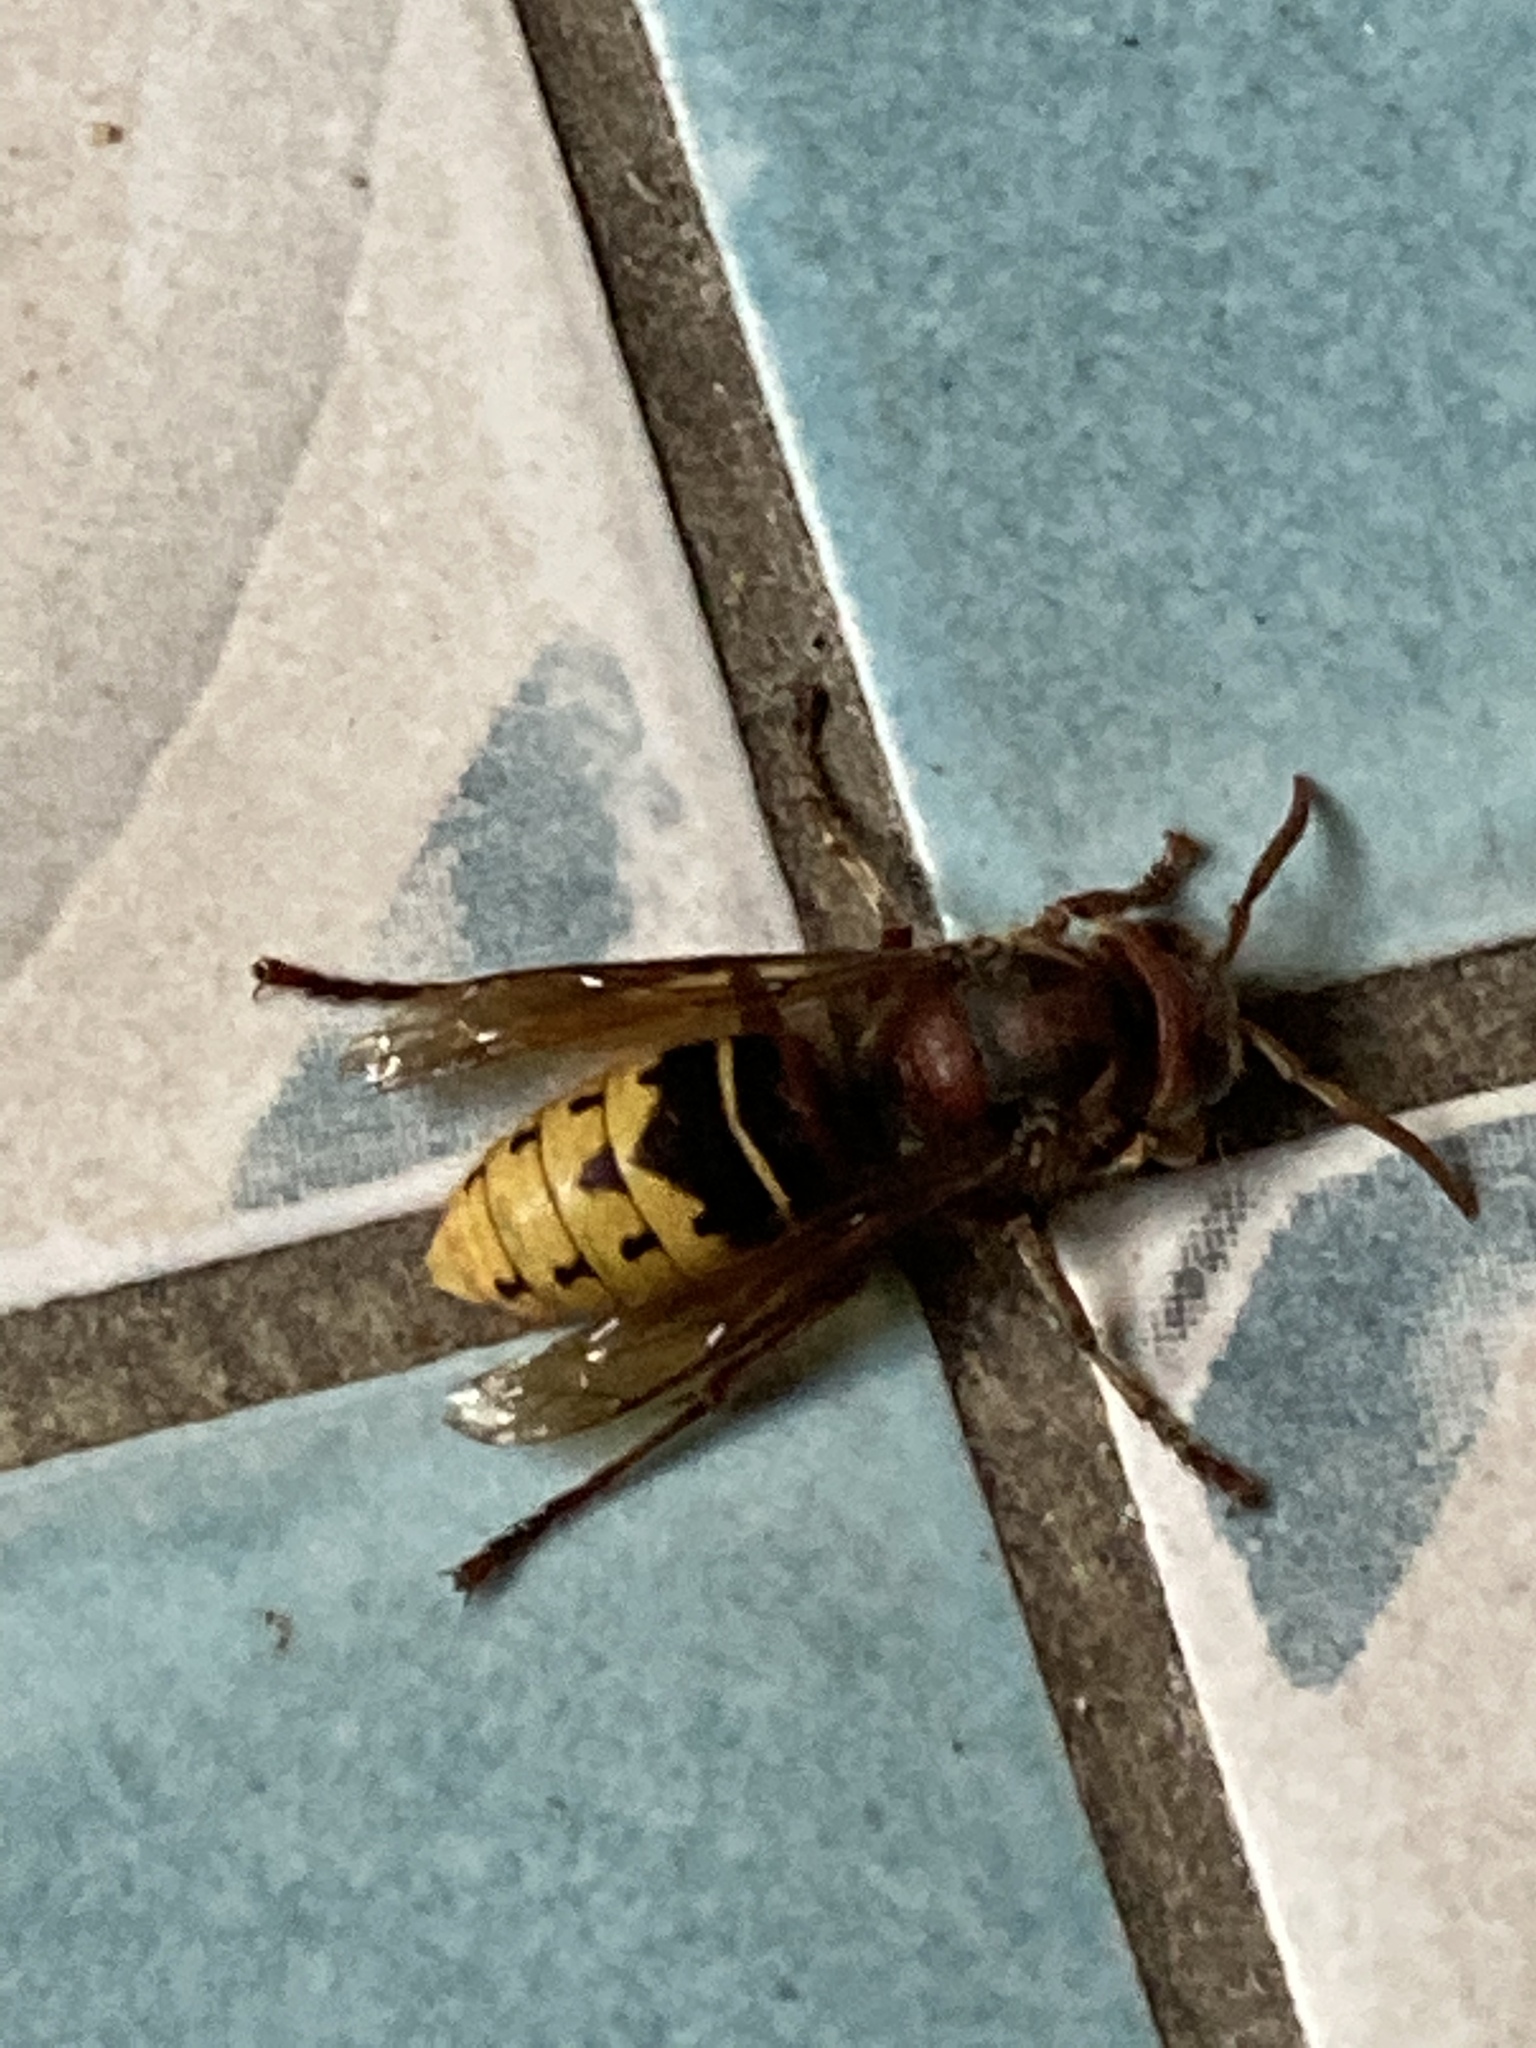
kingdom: Animalia
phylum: Arthropoda
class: Insecta
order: Hymenoptera
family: Vespidae
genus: Vespa
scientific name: Vespa crabro
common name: Hornet
